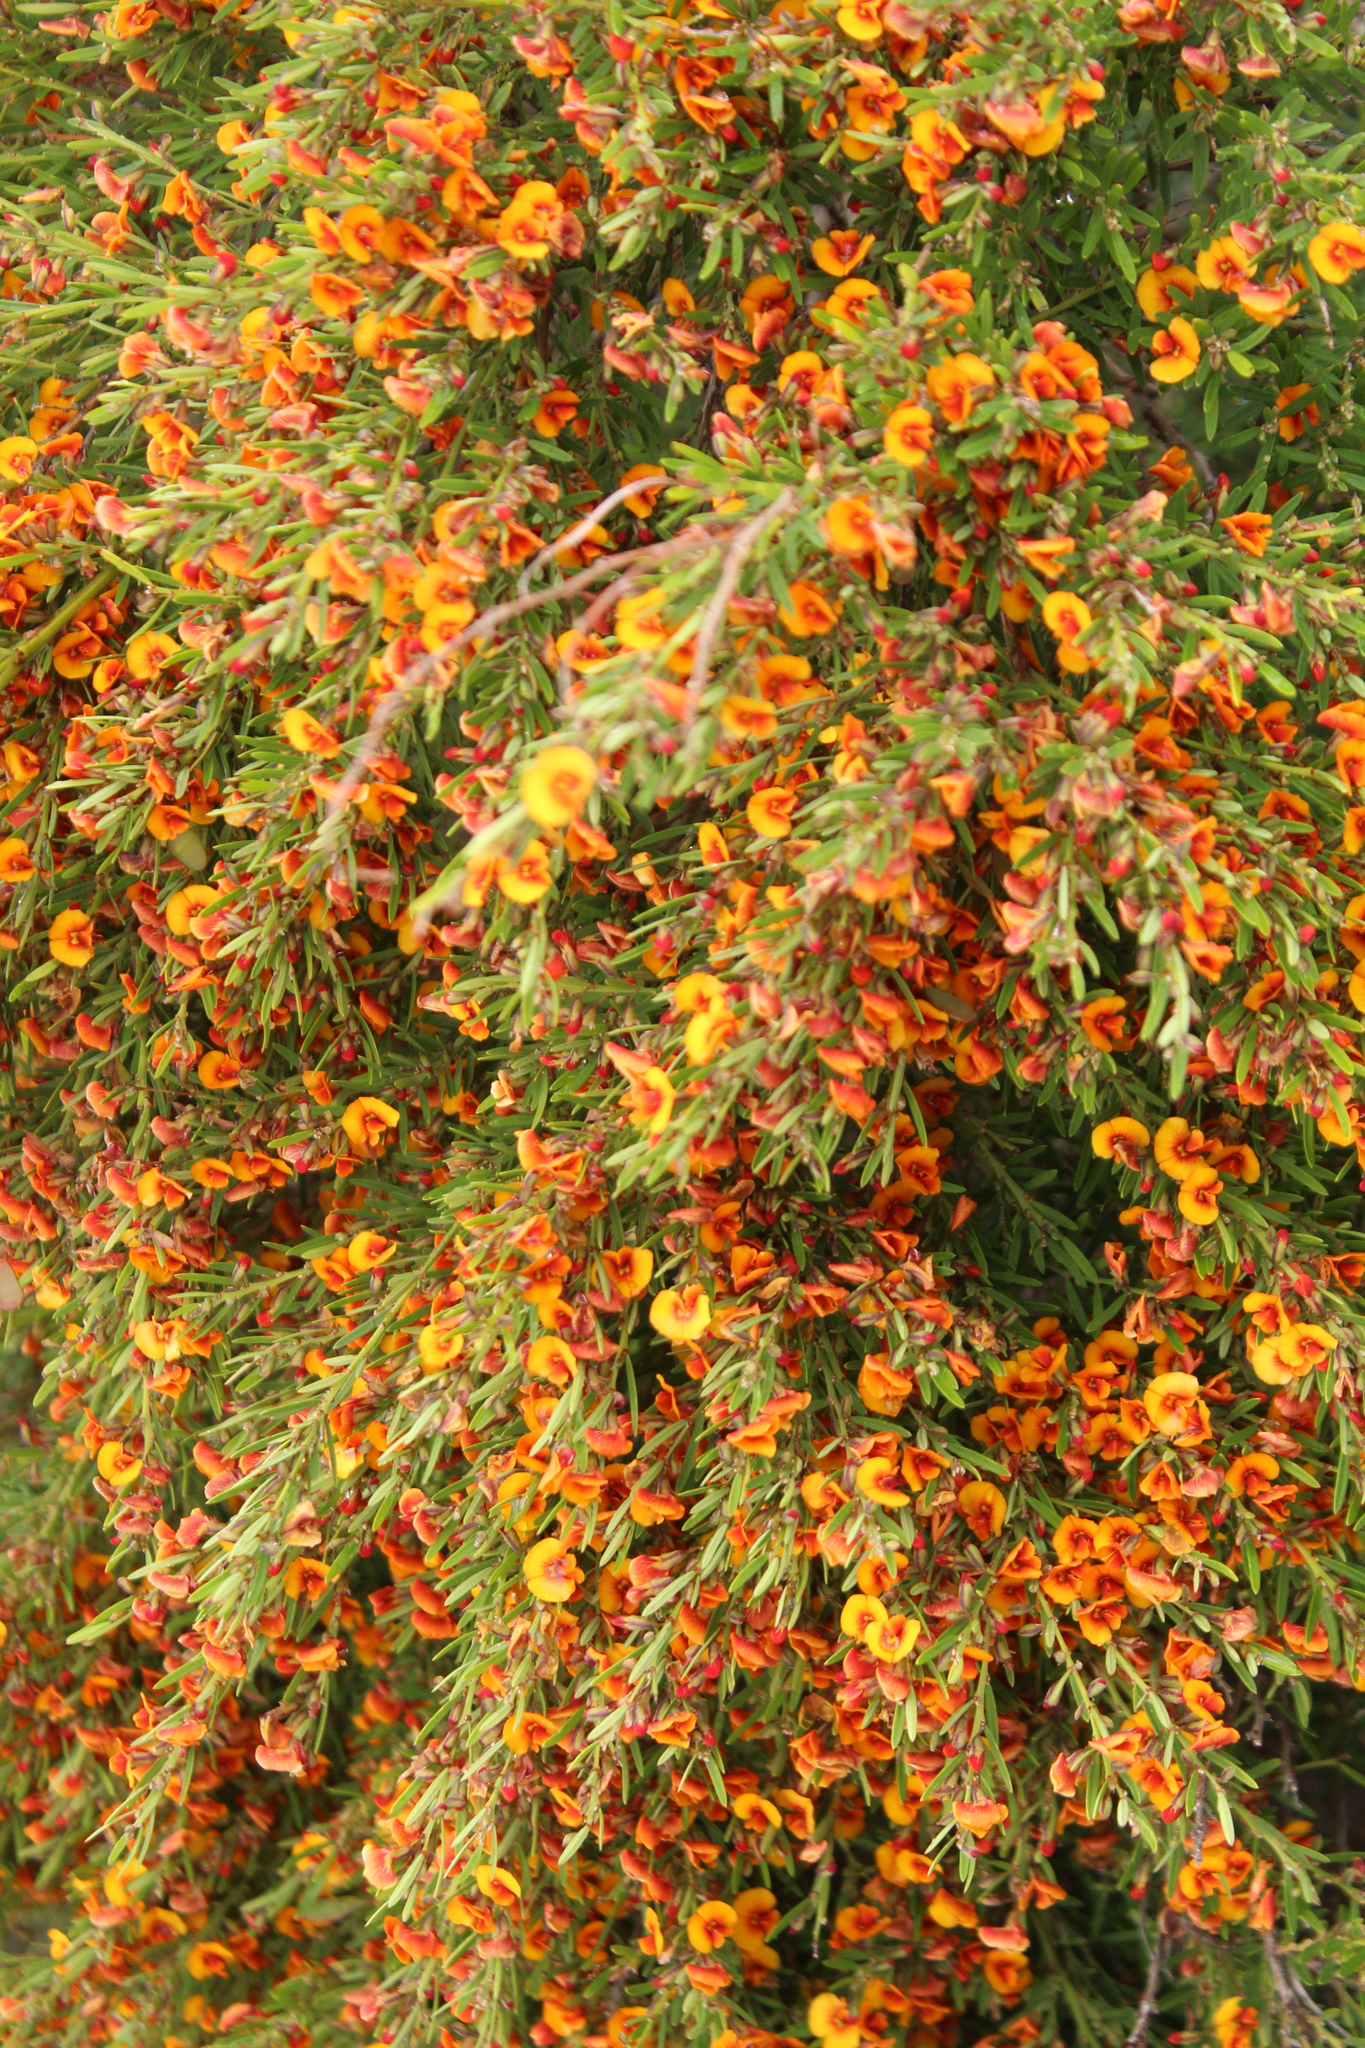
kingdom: Plantae
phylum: Tracheophyta
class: Magnoliopsida
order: Fabales
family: Fabaceae
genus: Bossiaea
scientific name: Bossiaea linophylla
